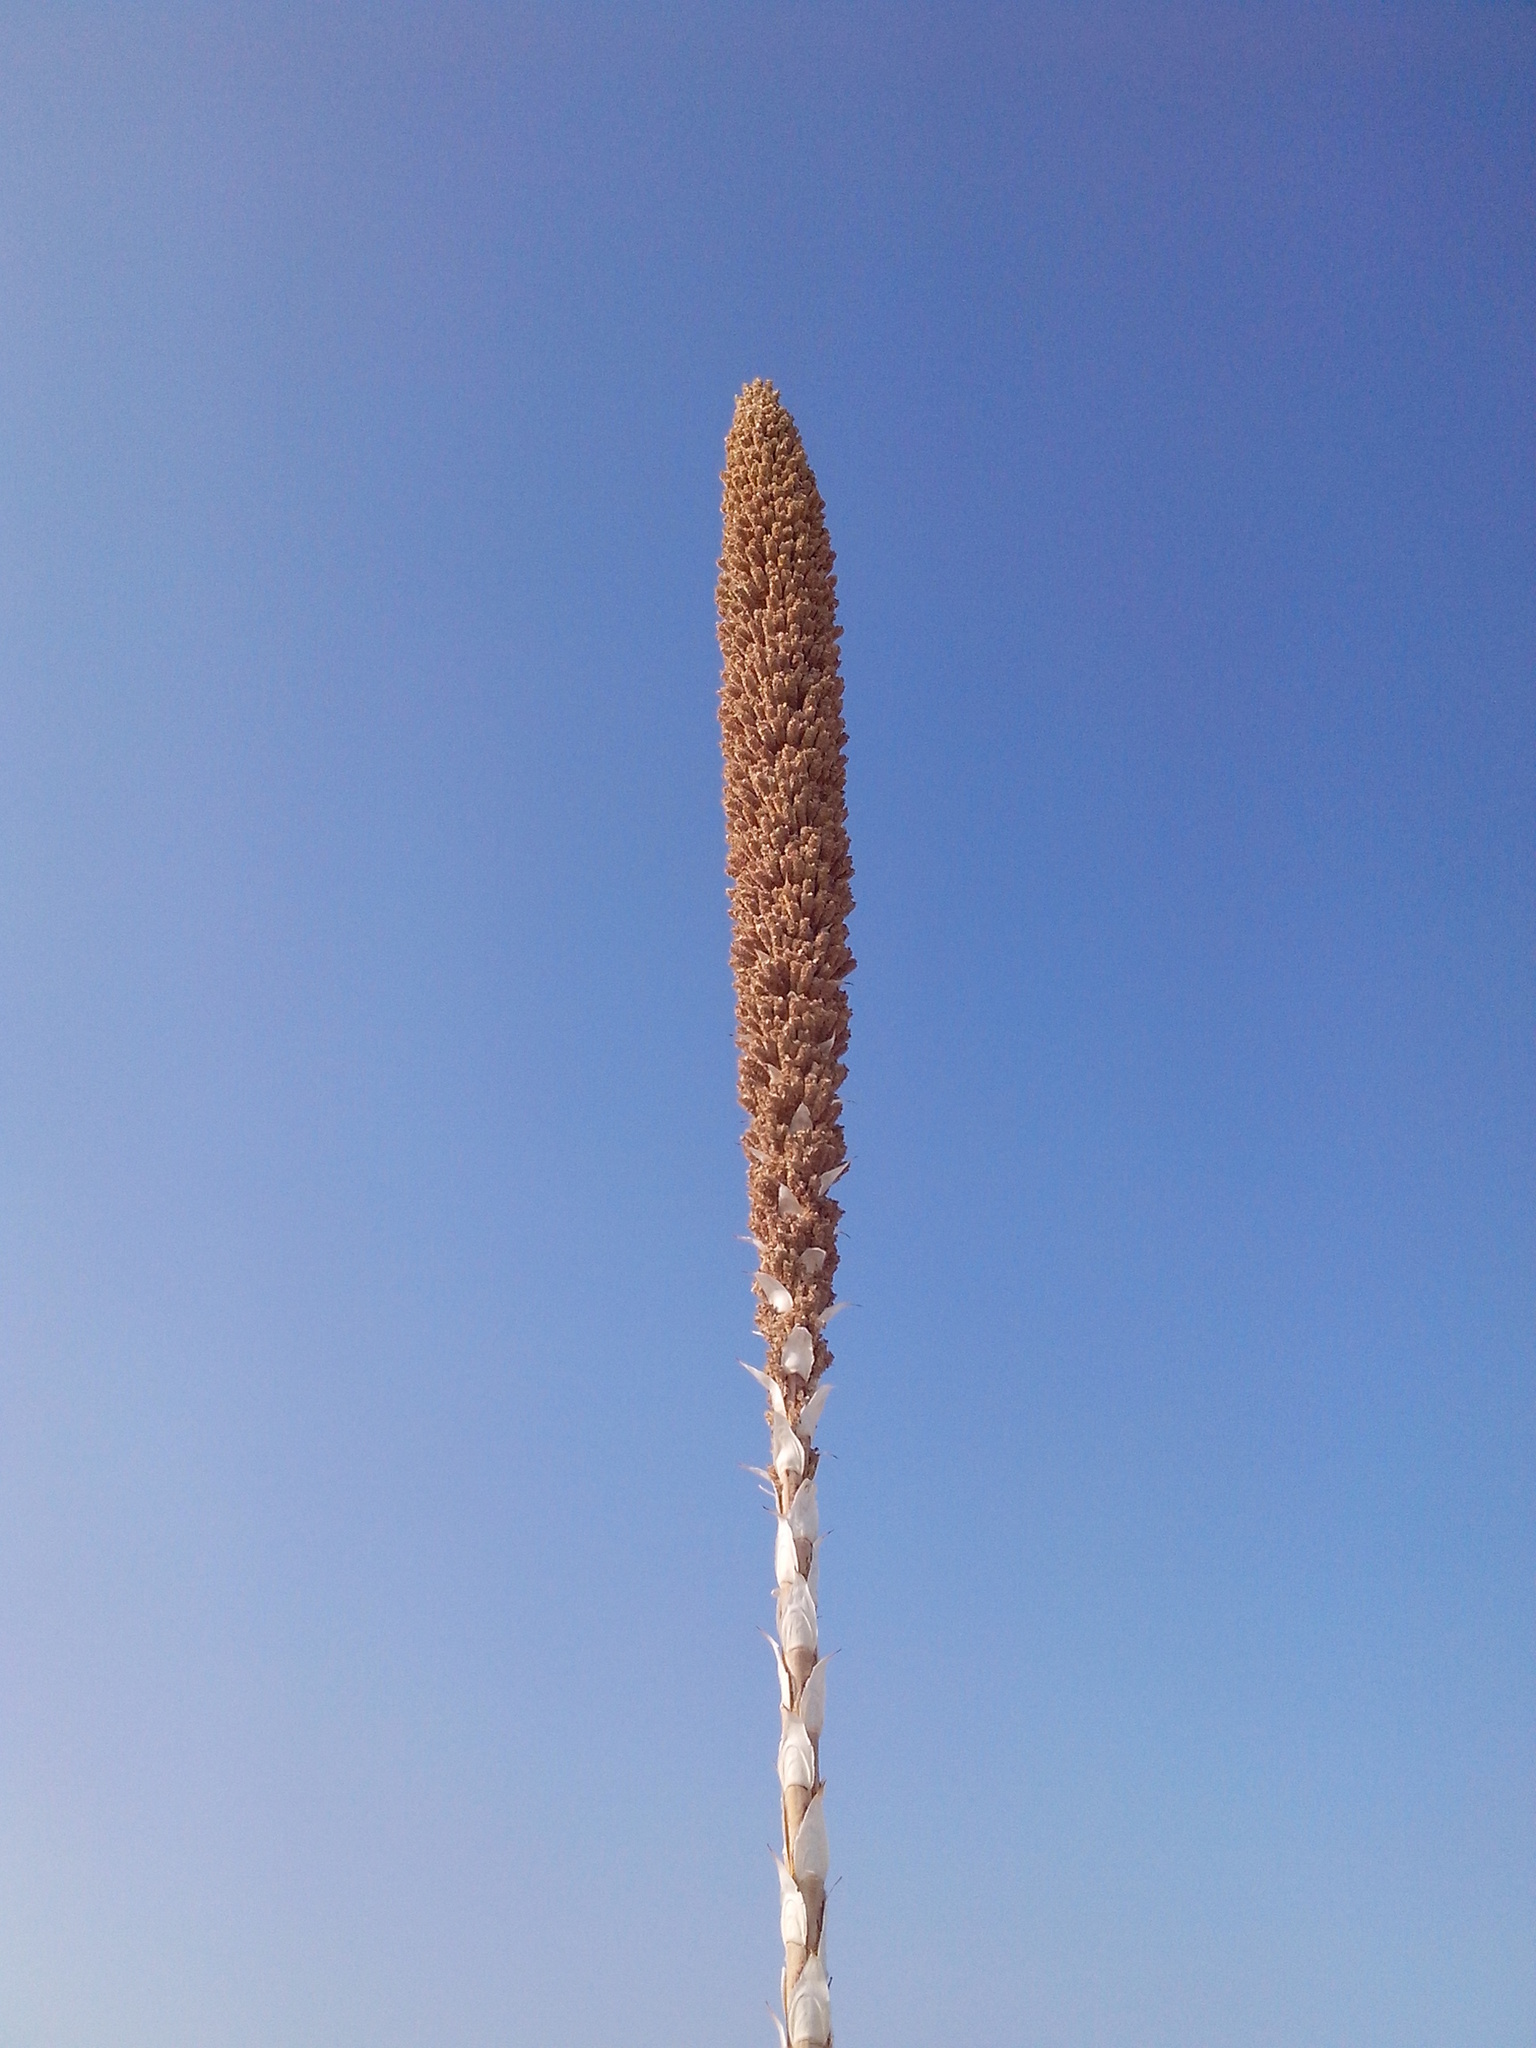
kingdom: Plantae
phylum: Tracheophyta
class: Liliopsida
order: Asparagales
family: Asparagaceae
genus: Dasylirion
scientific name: Dasylirion cedrosanum
